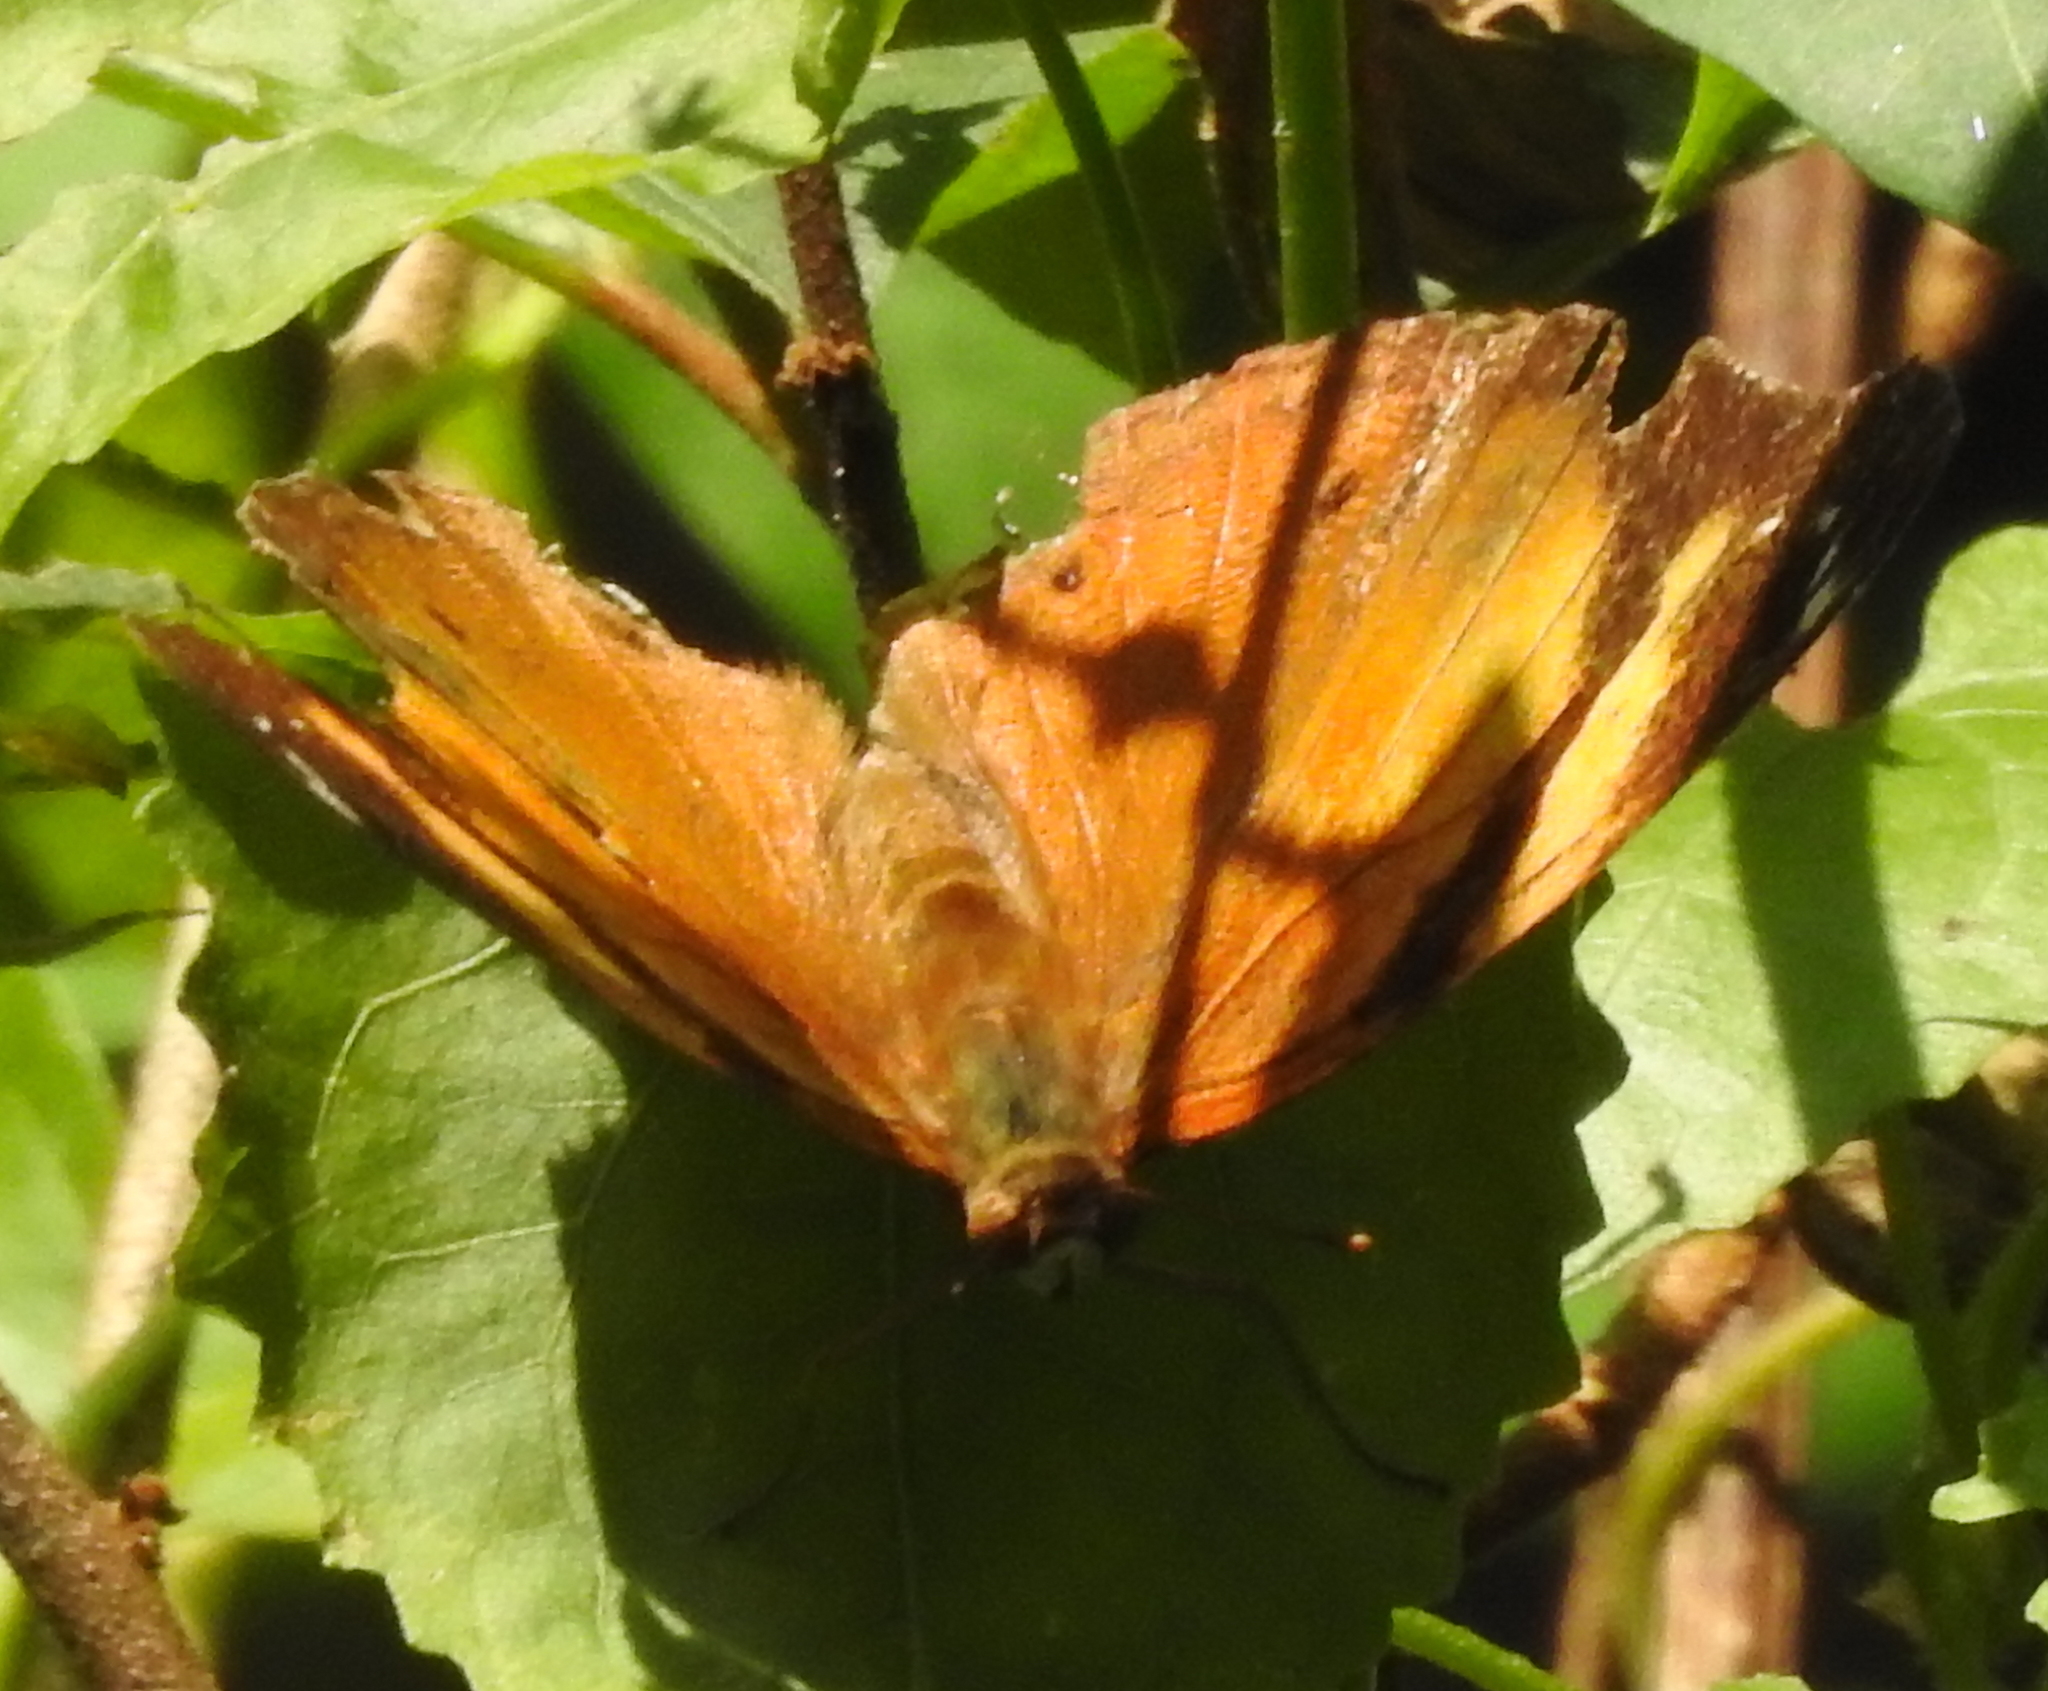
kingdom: Animalia
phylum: Arthropoda
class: Insecta
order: Lepidoptera
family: Nymphalidae
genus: Doleschallia
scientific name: Doleschallia bisaltide
